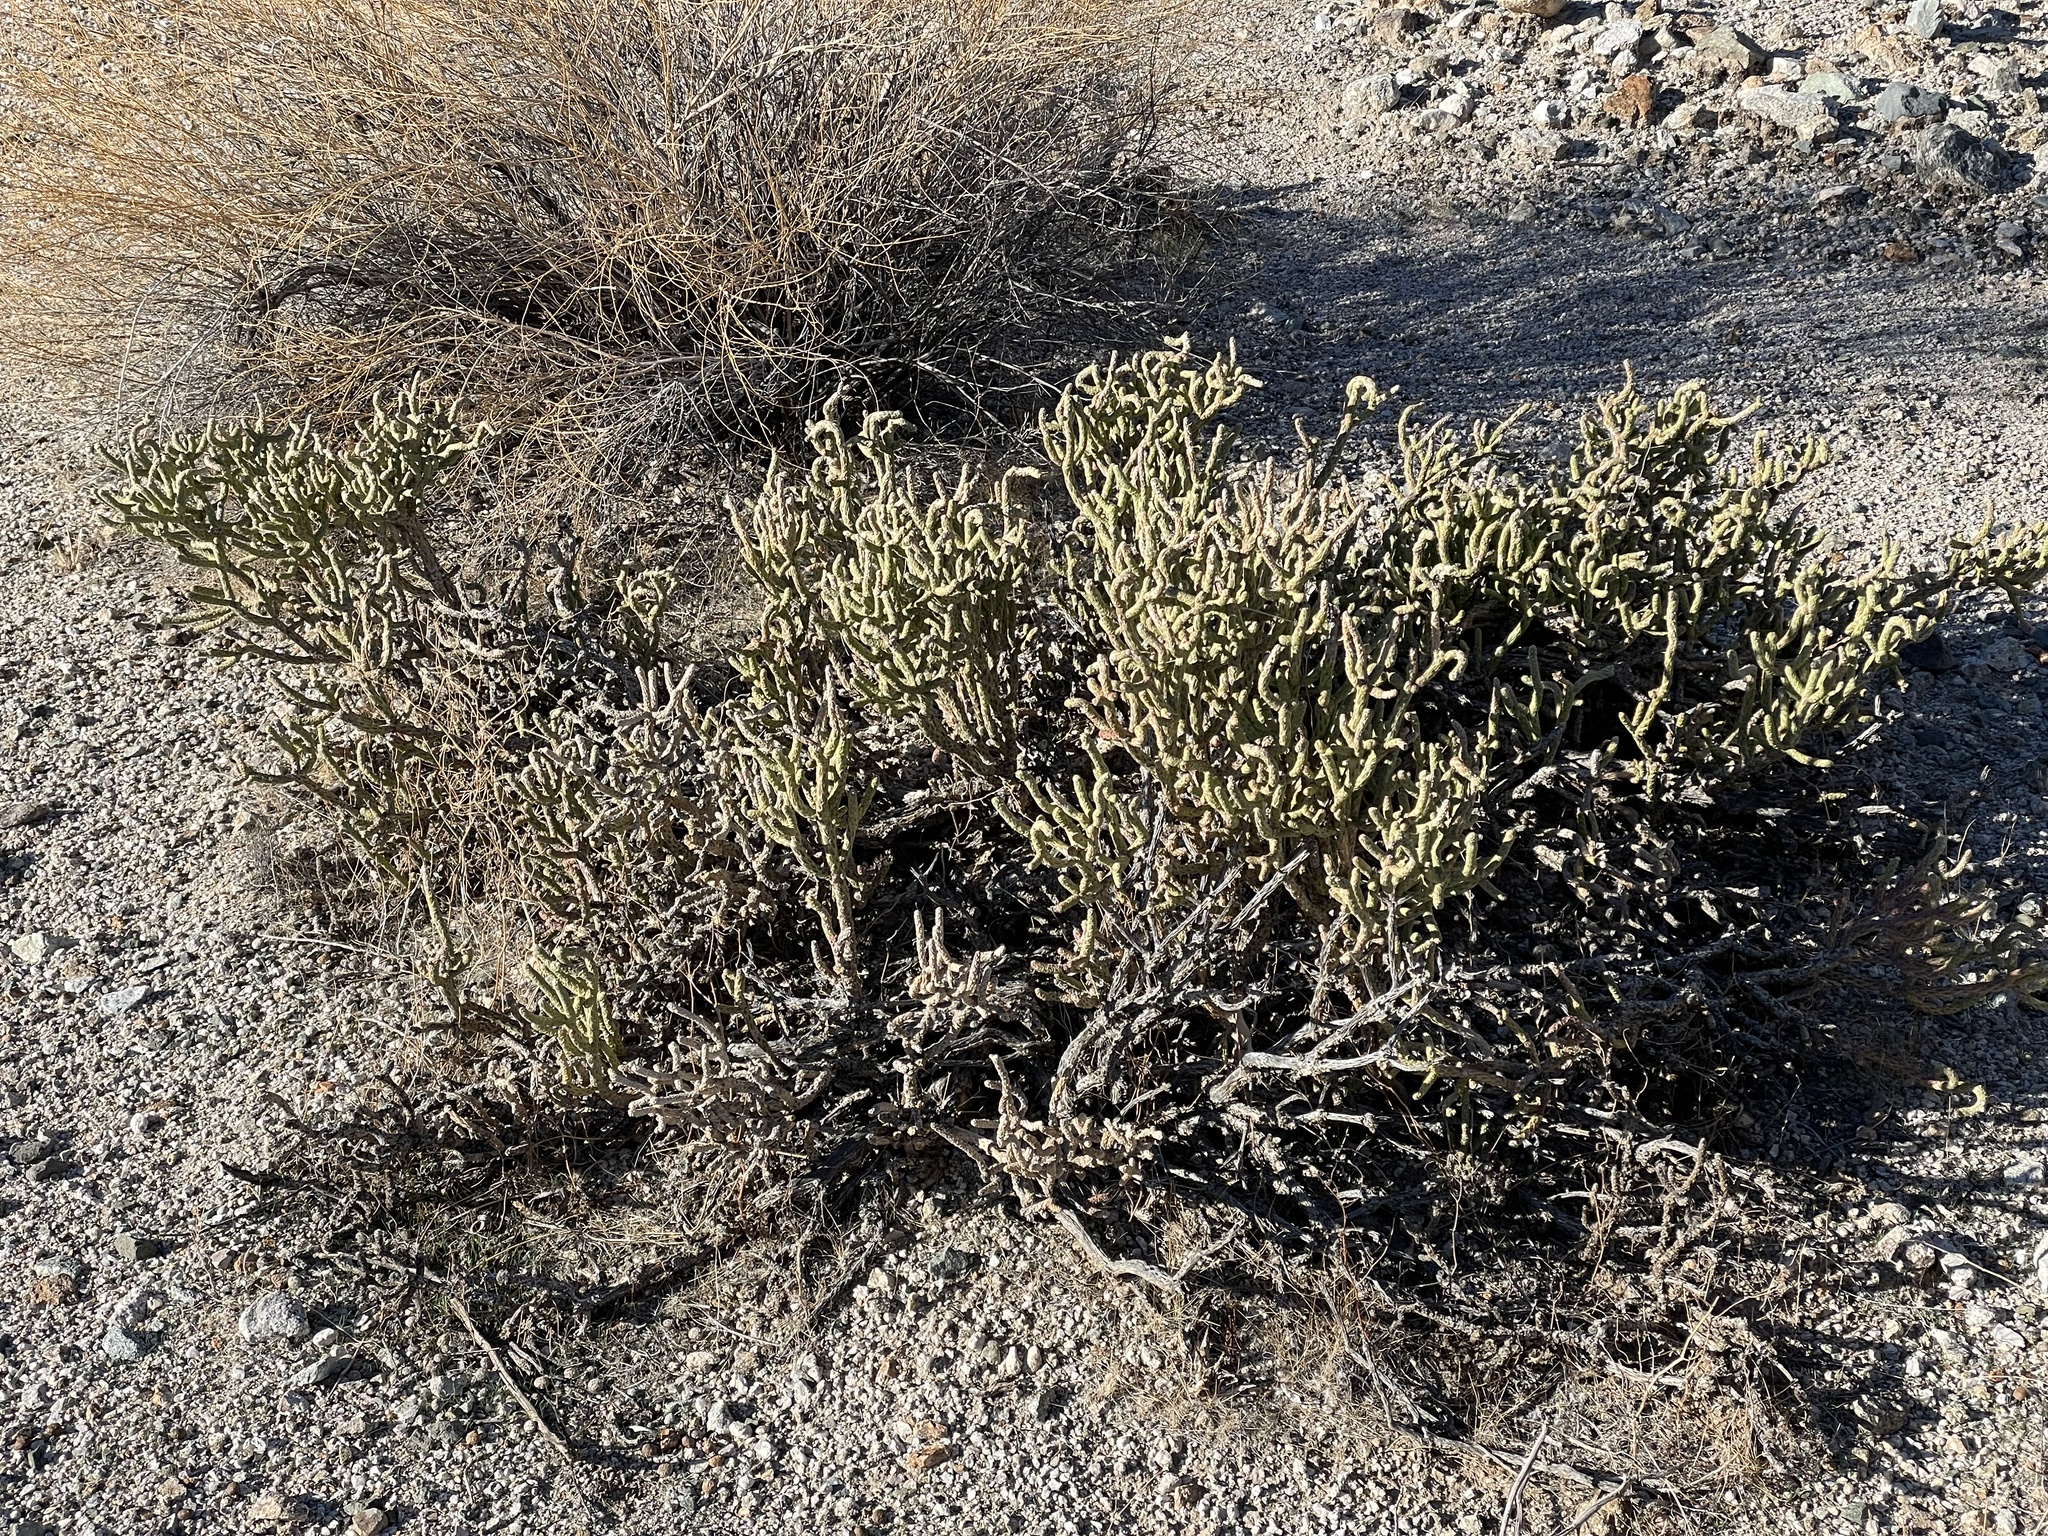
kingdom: Plantae
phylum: Tracheophyta
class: Magnoliopsida
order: Caryophyllales
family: Cactaceae
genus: Cylindropuntia
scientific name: Cylindropuntia ramosissima
